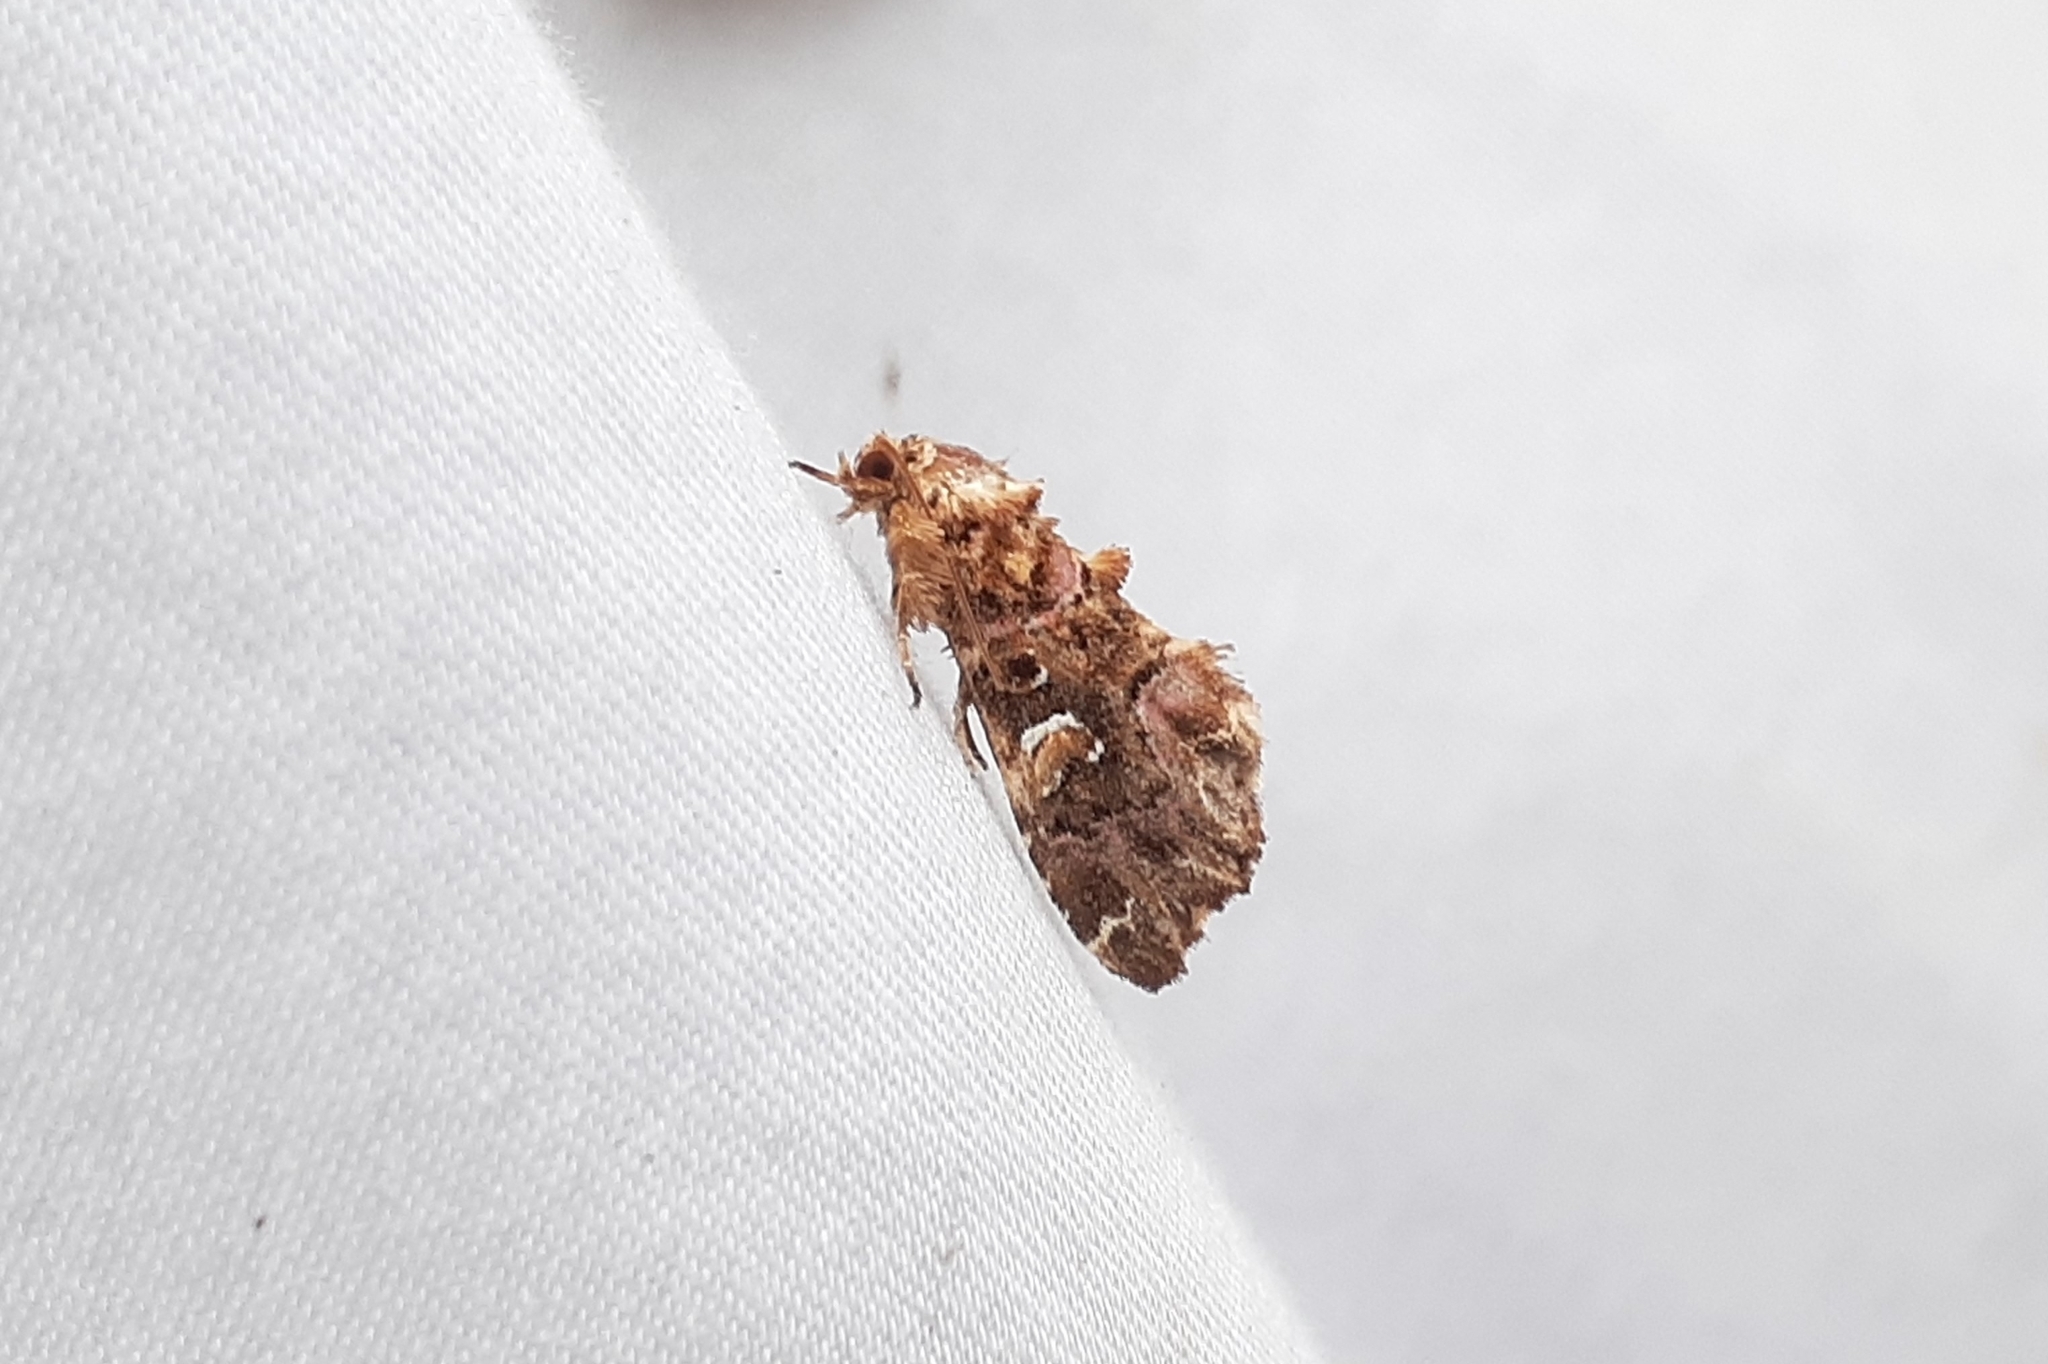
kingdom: Animalia
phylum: Arthropoda
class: Insecta
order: Lepidoptera
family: Noctuidae
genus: Callopistria
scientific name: Callopistria mollissima
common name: Pink-shaded fern moth
